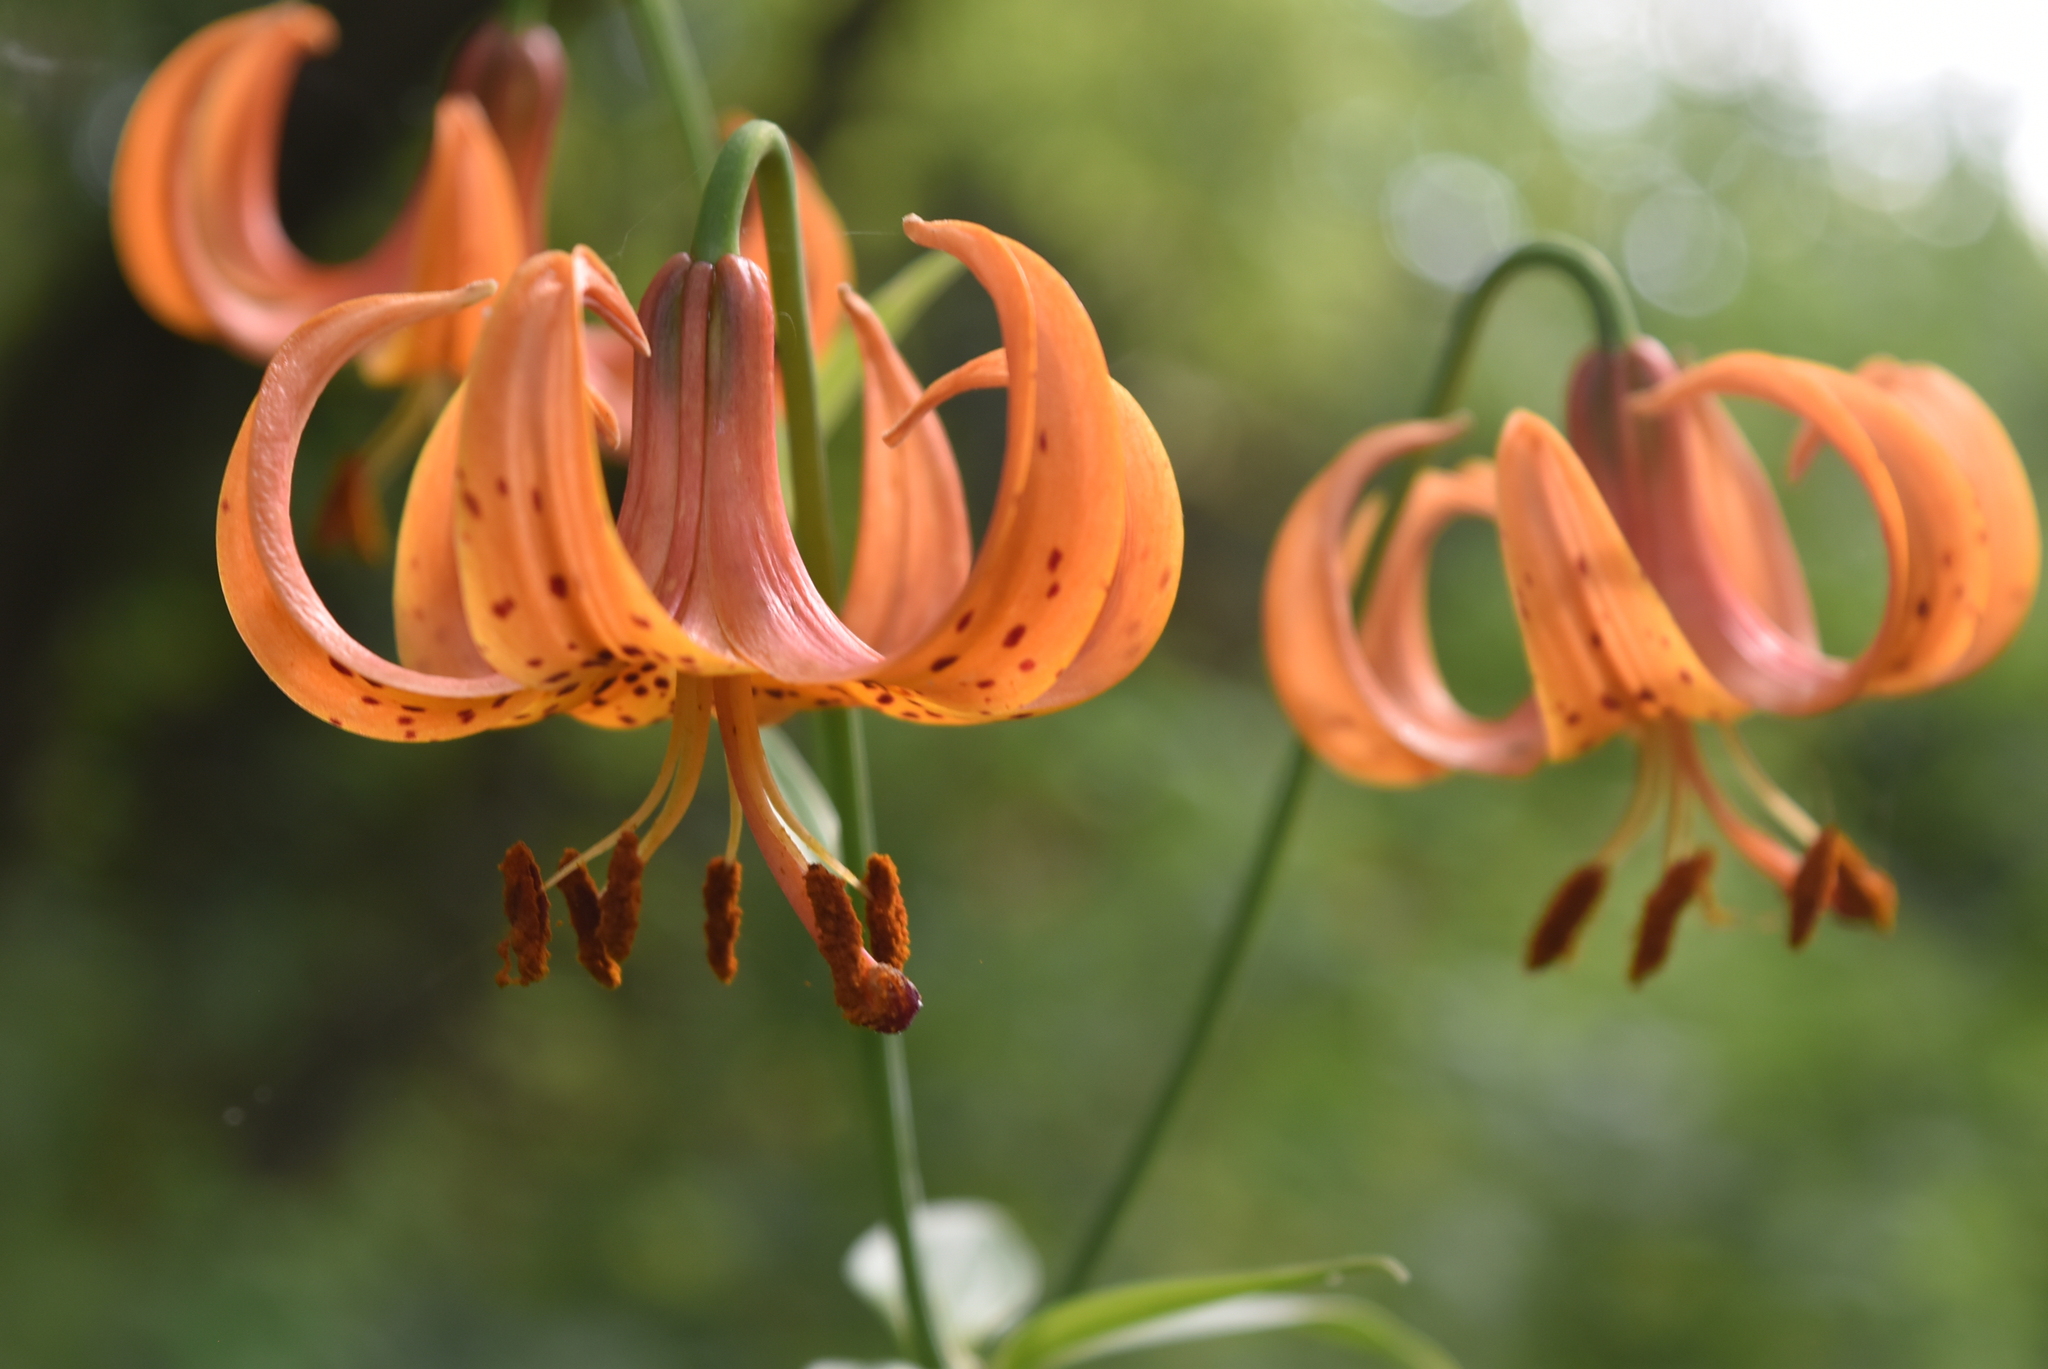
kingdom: Plantae
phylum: Tracheophyta
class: Liliopsida
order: Liliales
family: Liliaceae
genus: Lilium
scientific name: Lilium michiganense
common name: Michigan lily
